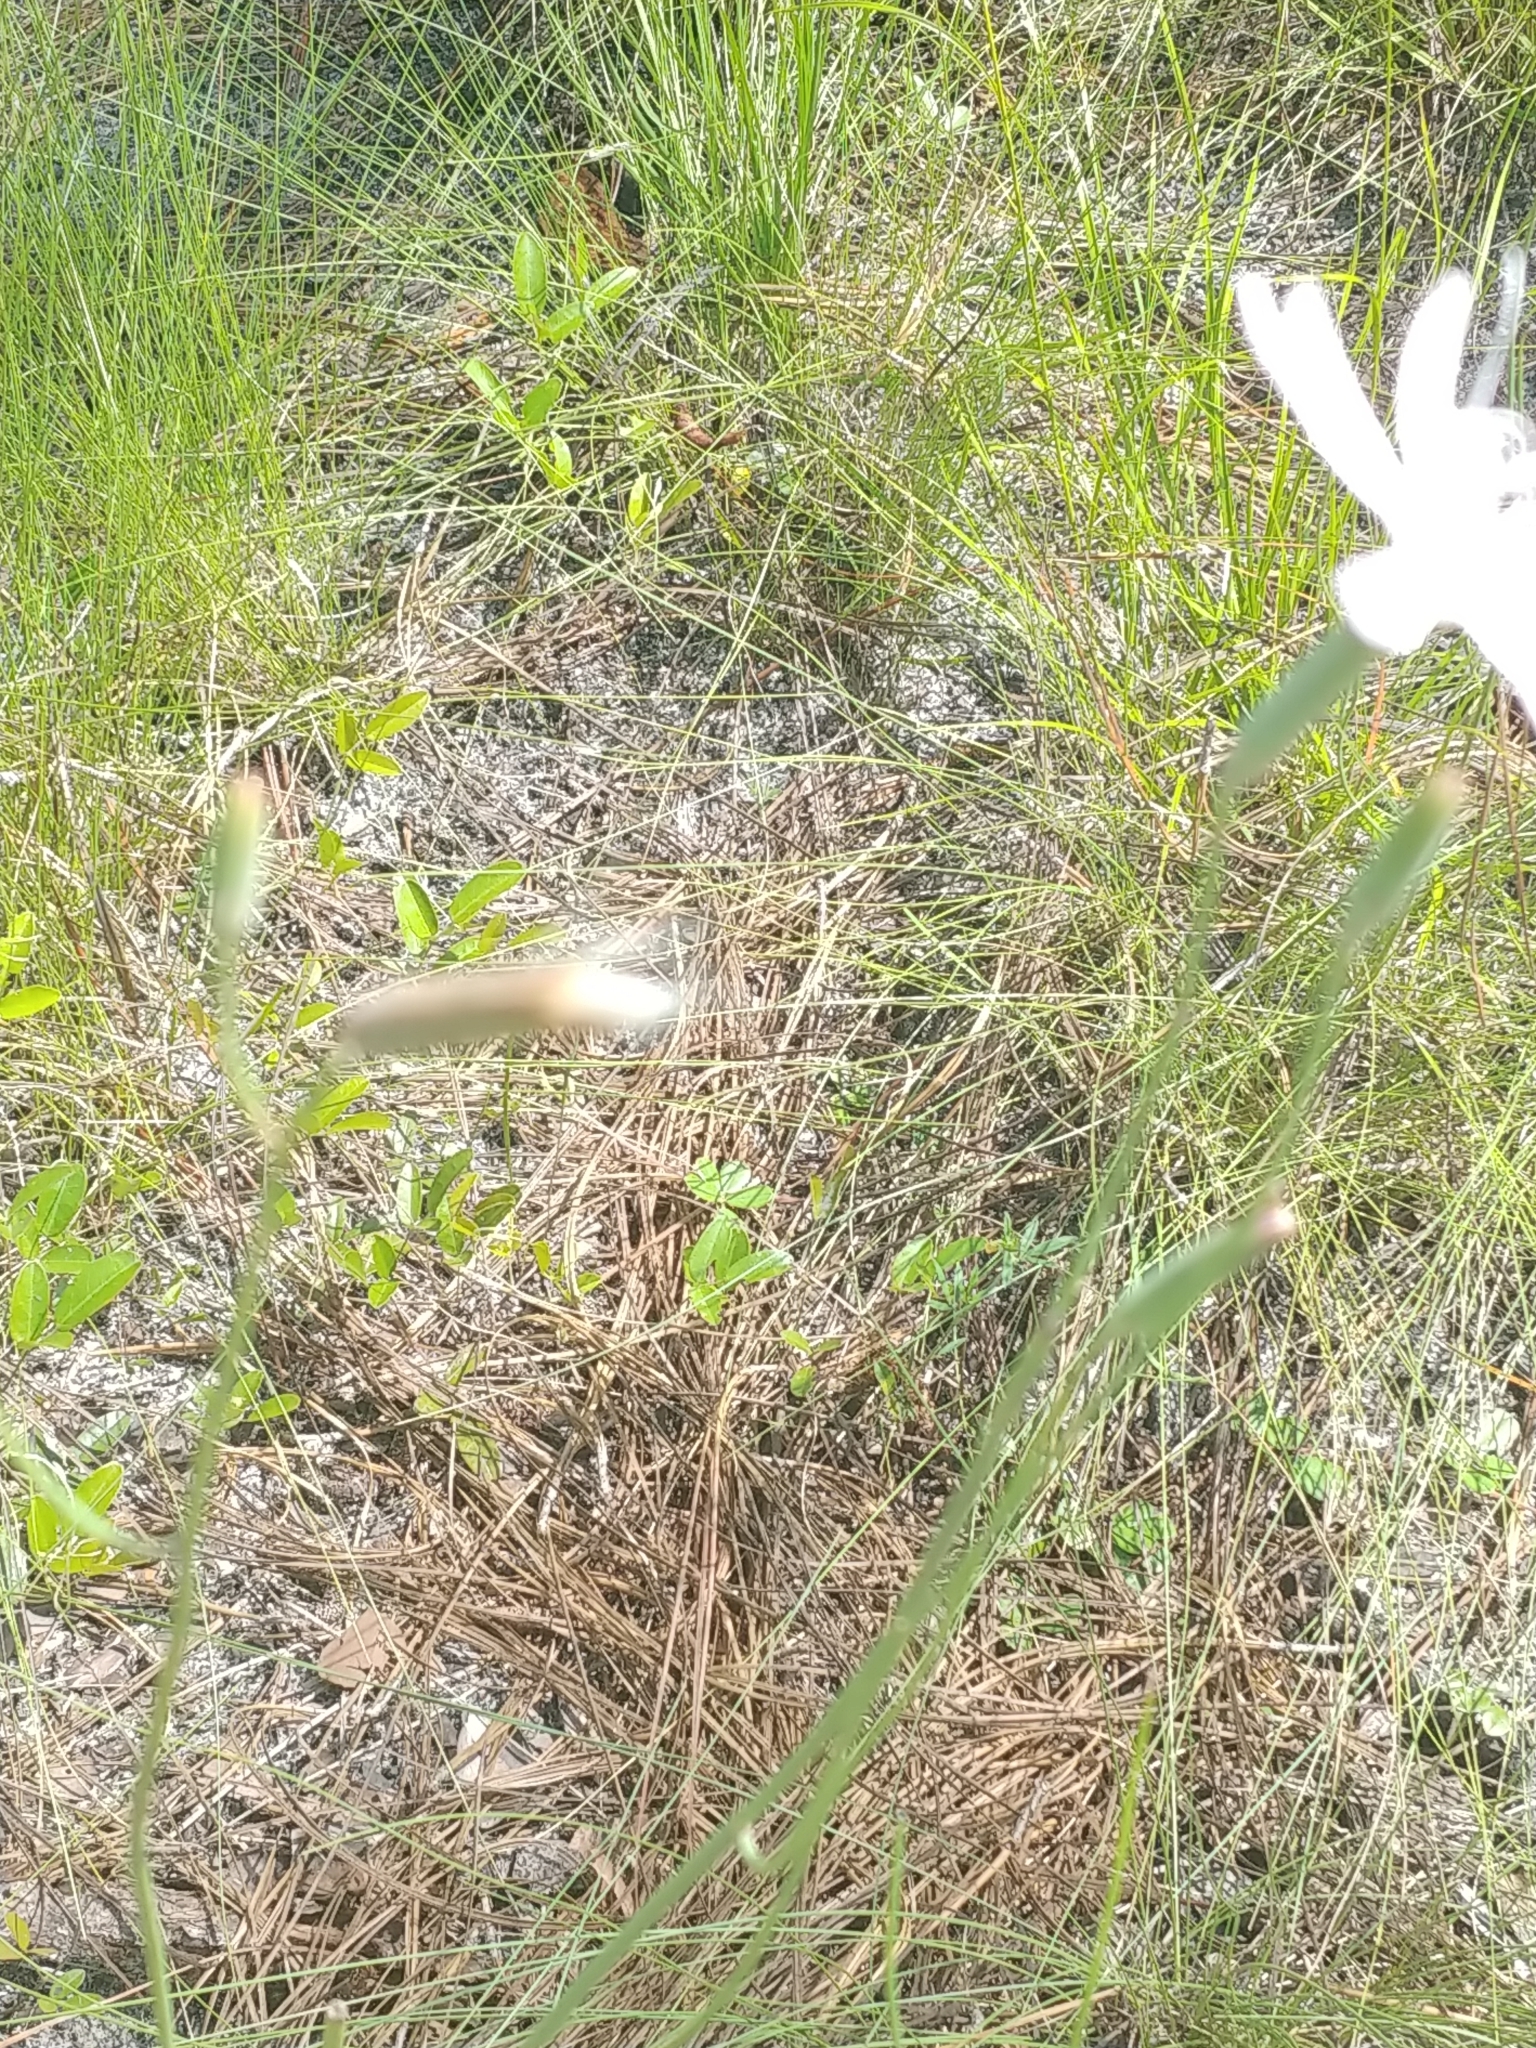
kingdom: Plantae
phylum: Tracheophyta
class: Magnoliopsida
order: Asterales
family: Asteraceae
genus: Lygodesmia
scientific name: Lygodesmia aphylla
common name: Rose-rush
